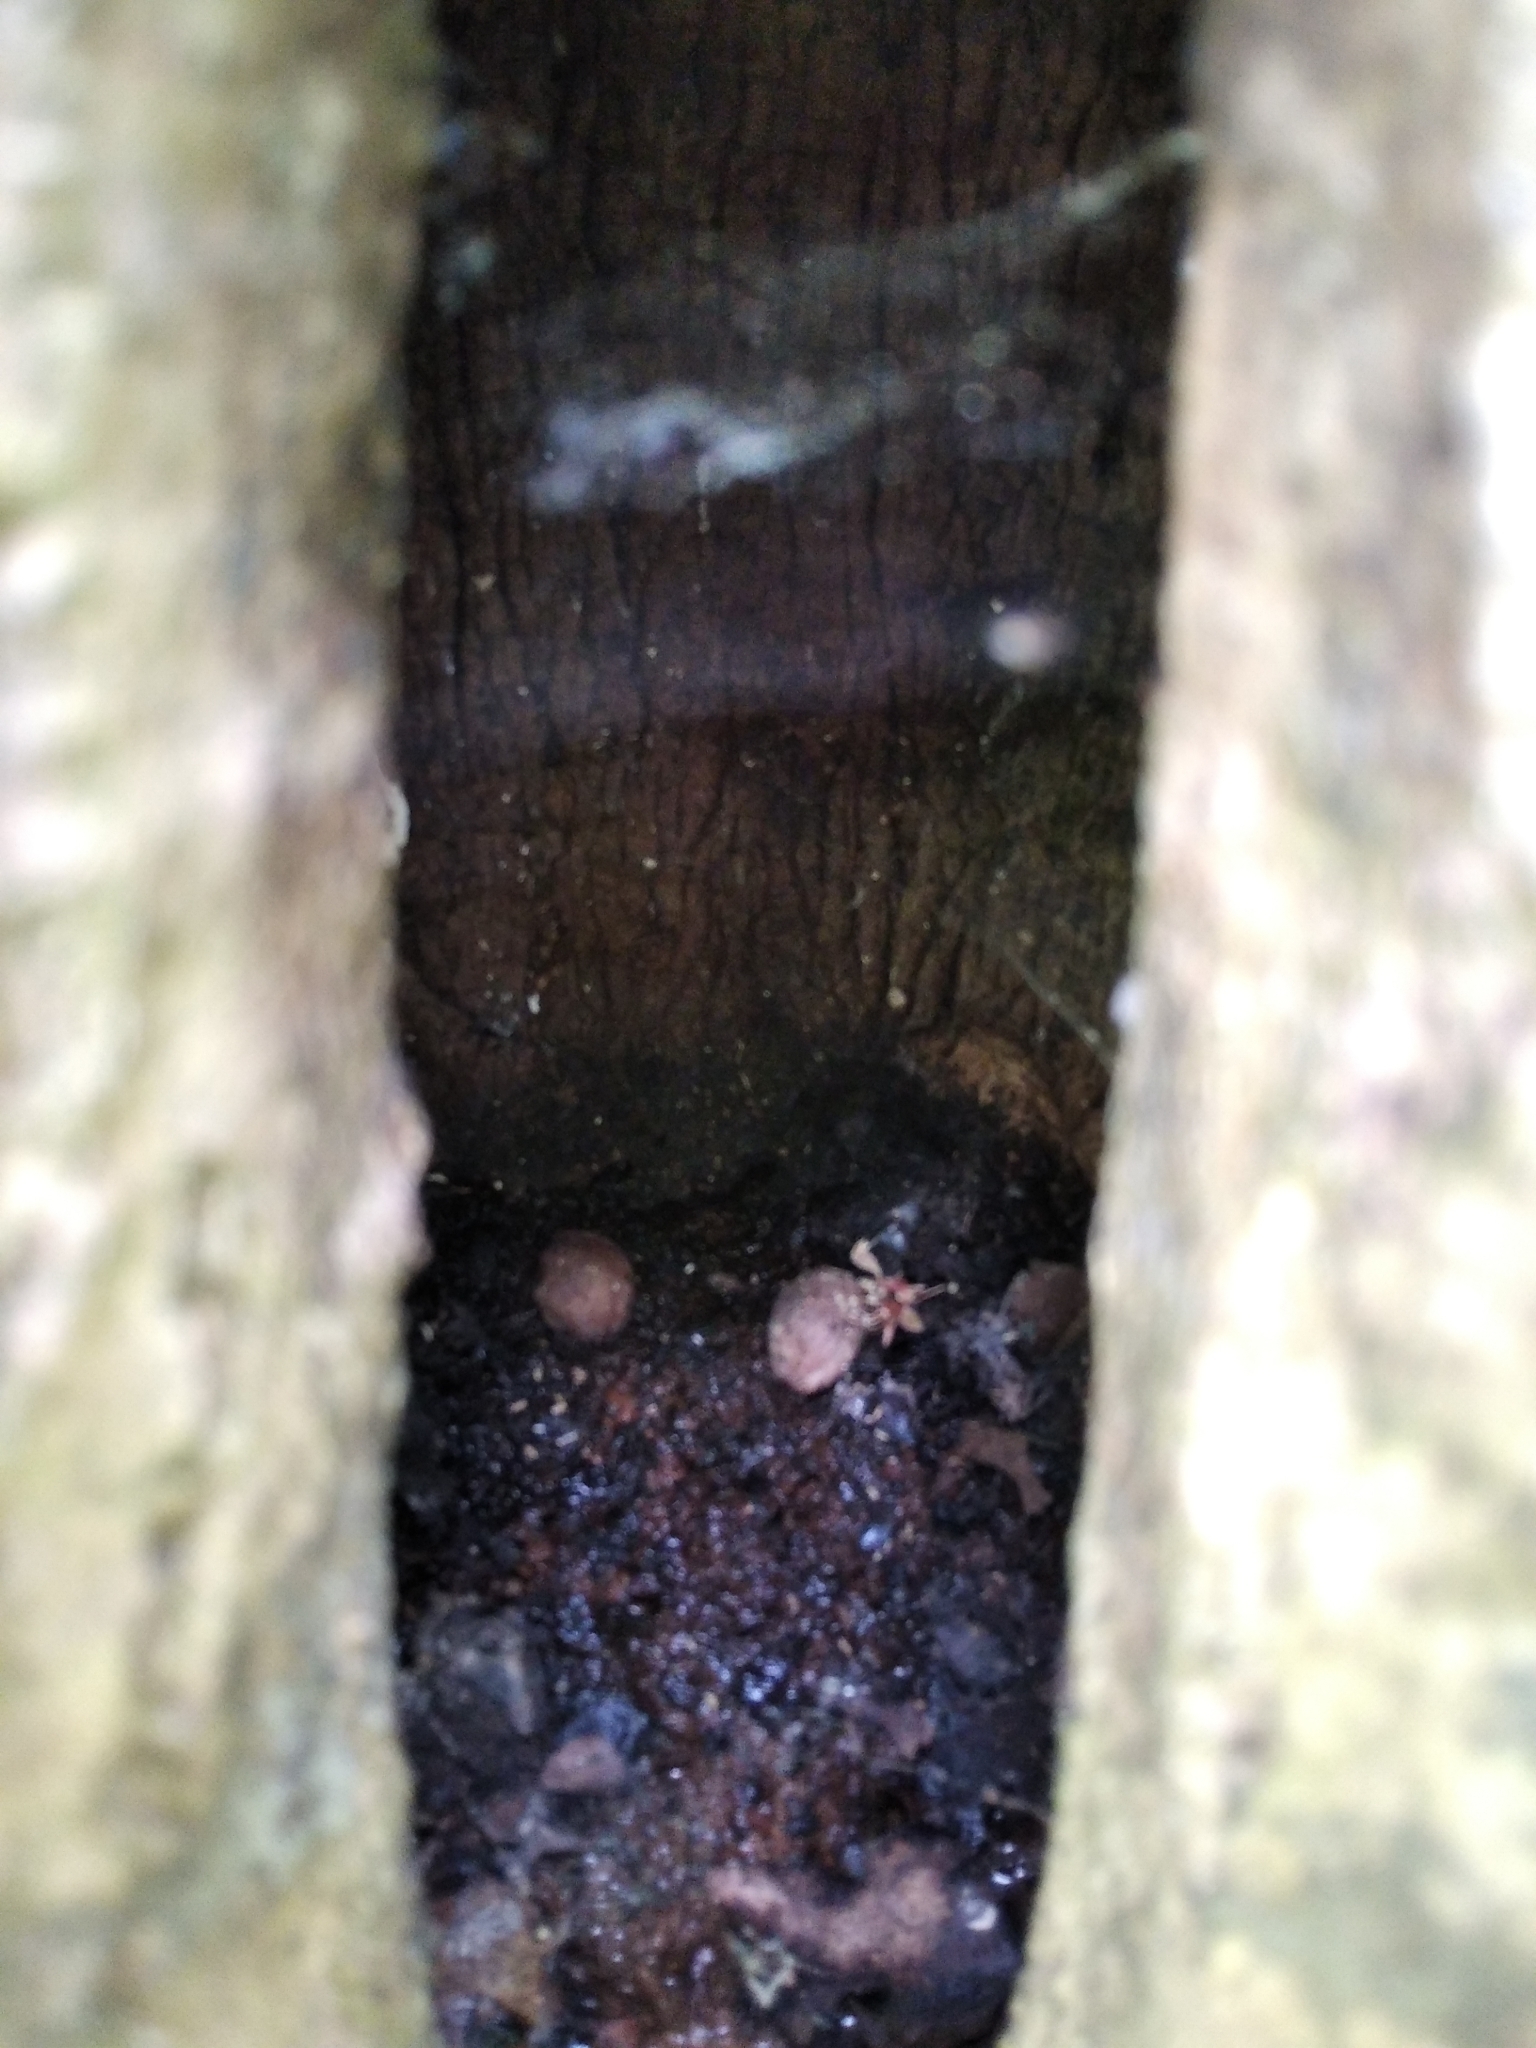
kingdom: Plantae
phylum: Tracheophyta
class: Magnoliopsida
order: Fagales
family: Juglandaceae
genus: Juglans
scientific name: Juglans regia
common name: Walnut
